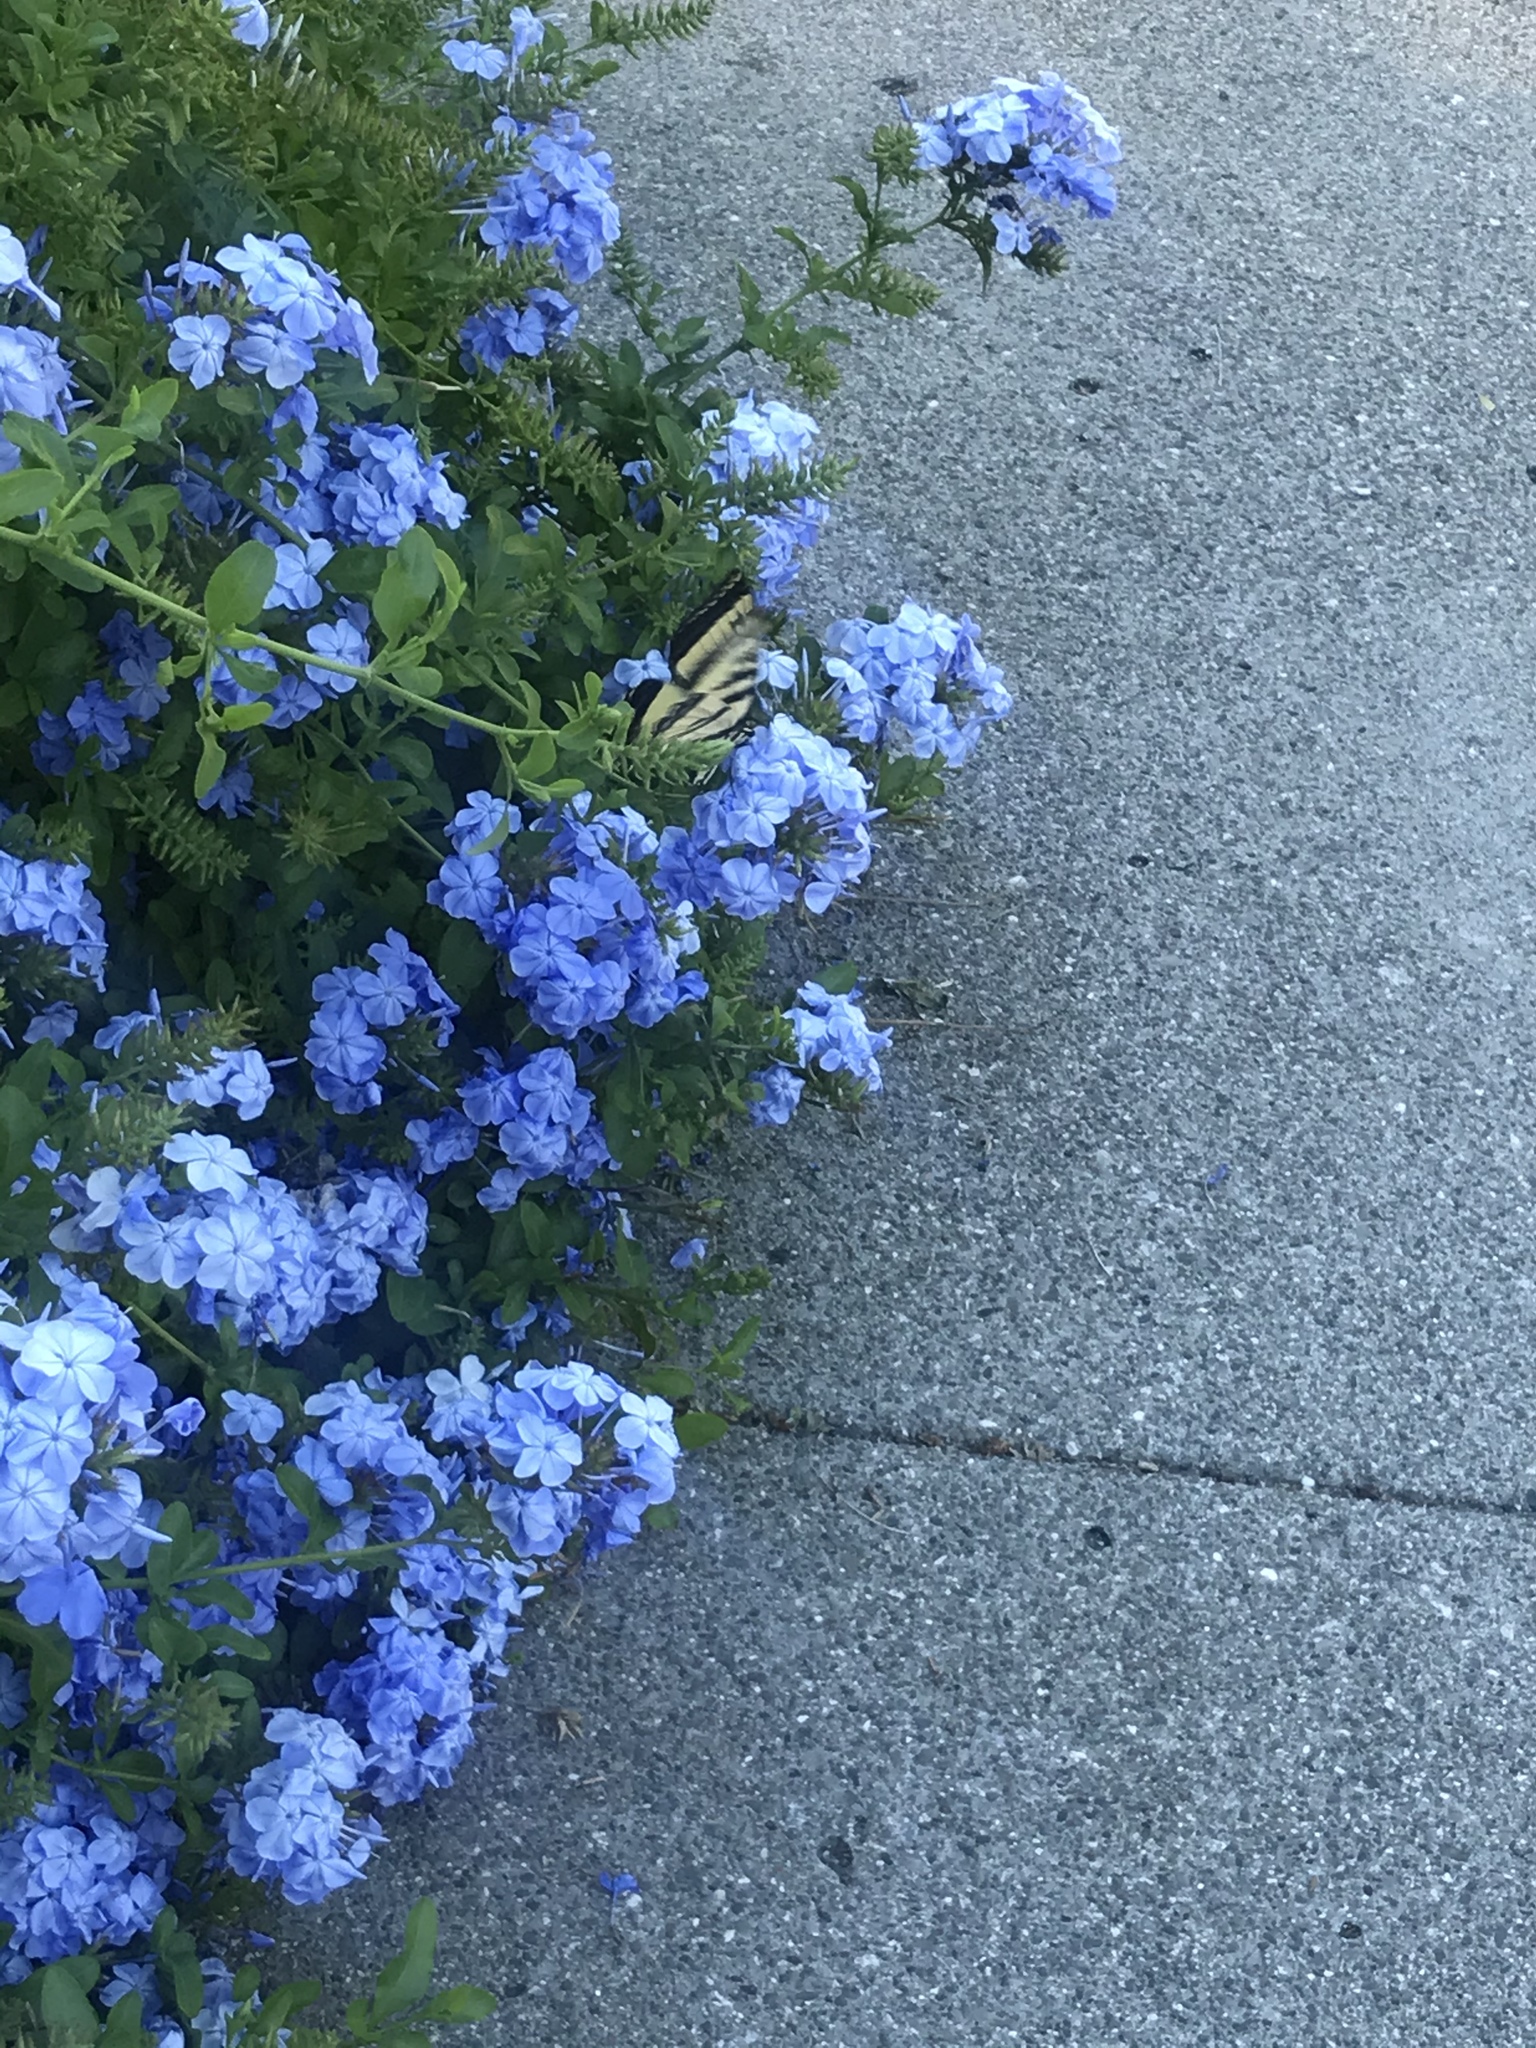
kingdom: Animalia
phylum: Arthropoda
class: Insecta
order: Lepidoptera
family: Papilionidae
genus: Papilio
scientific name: Papilio rutulus
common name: Western tiger swallowtail
